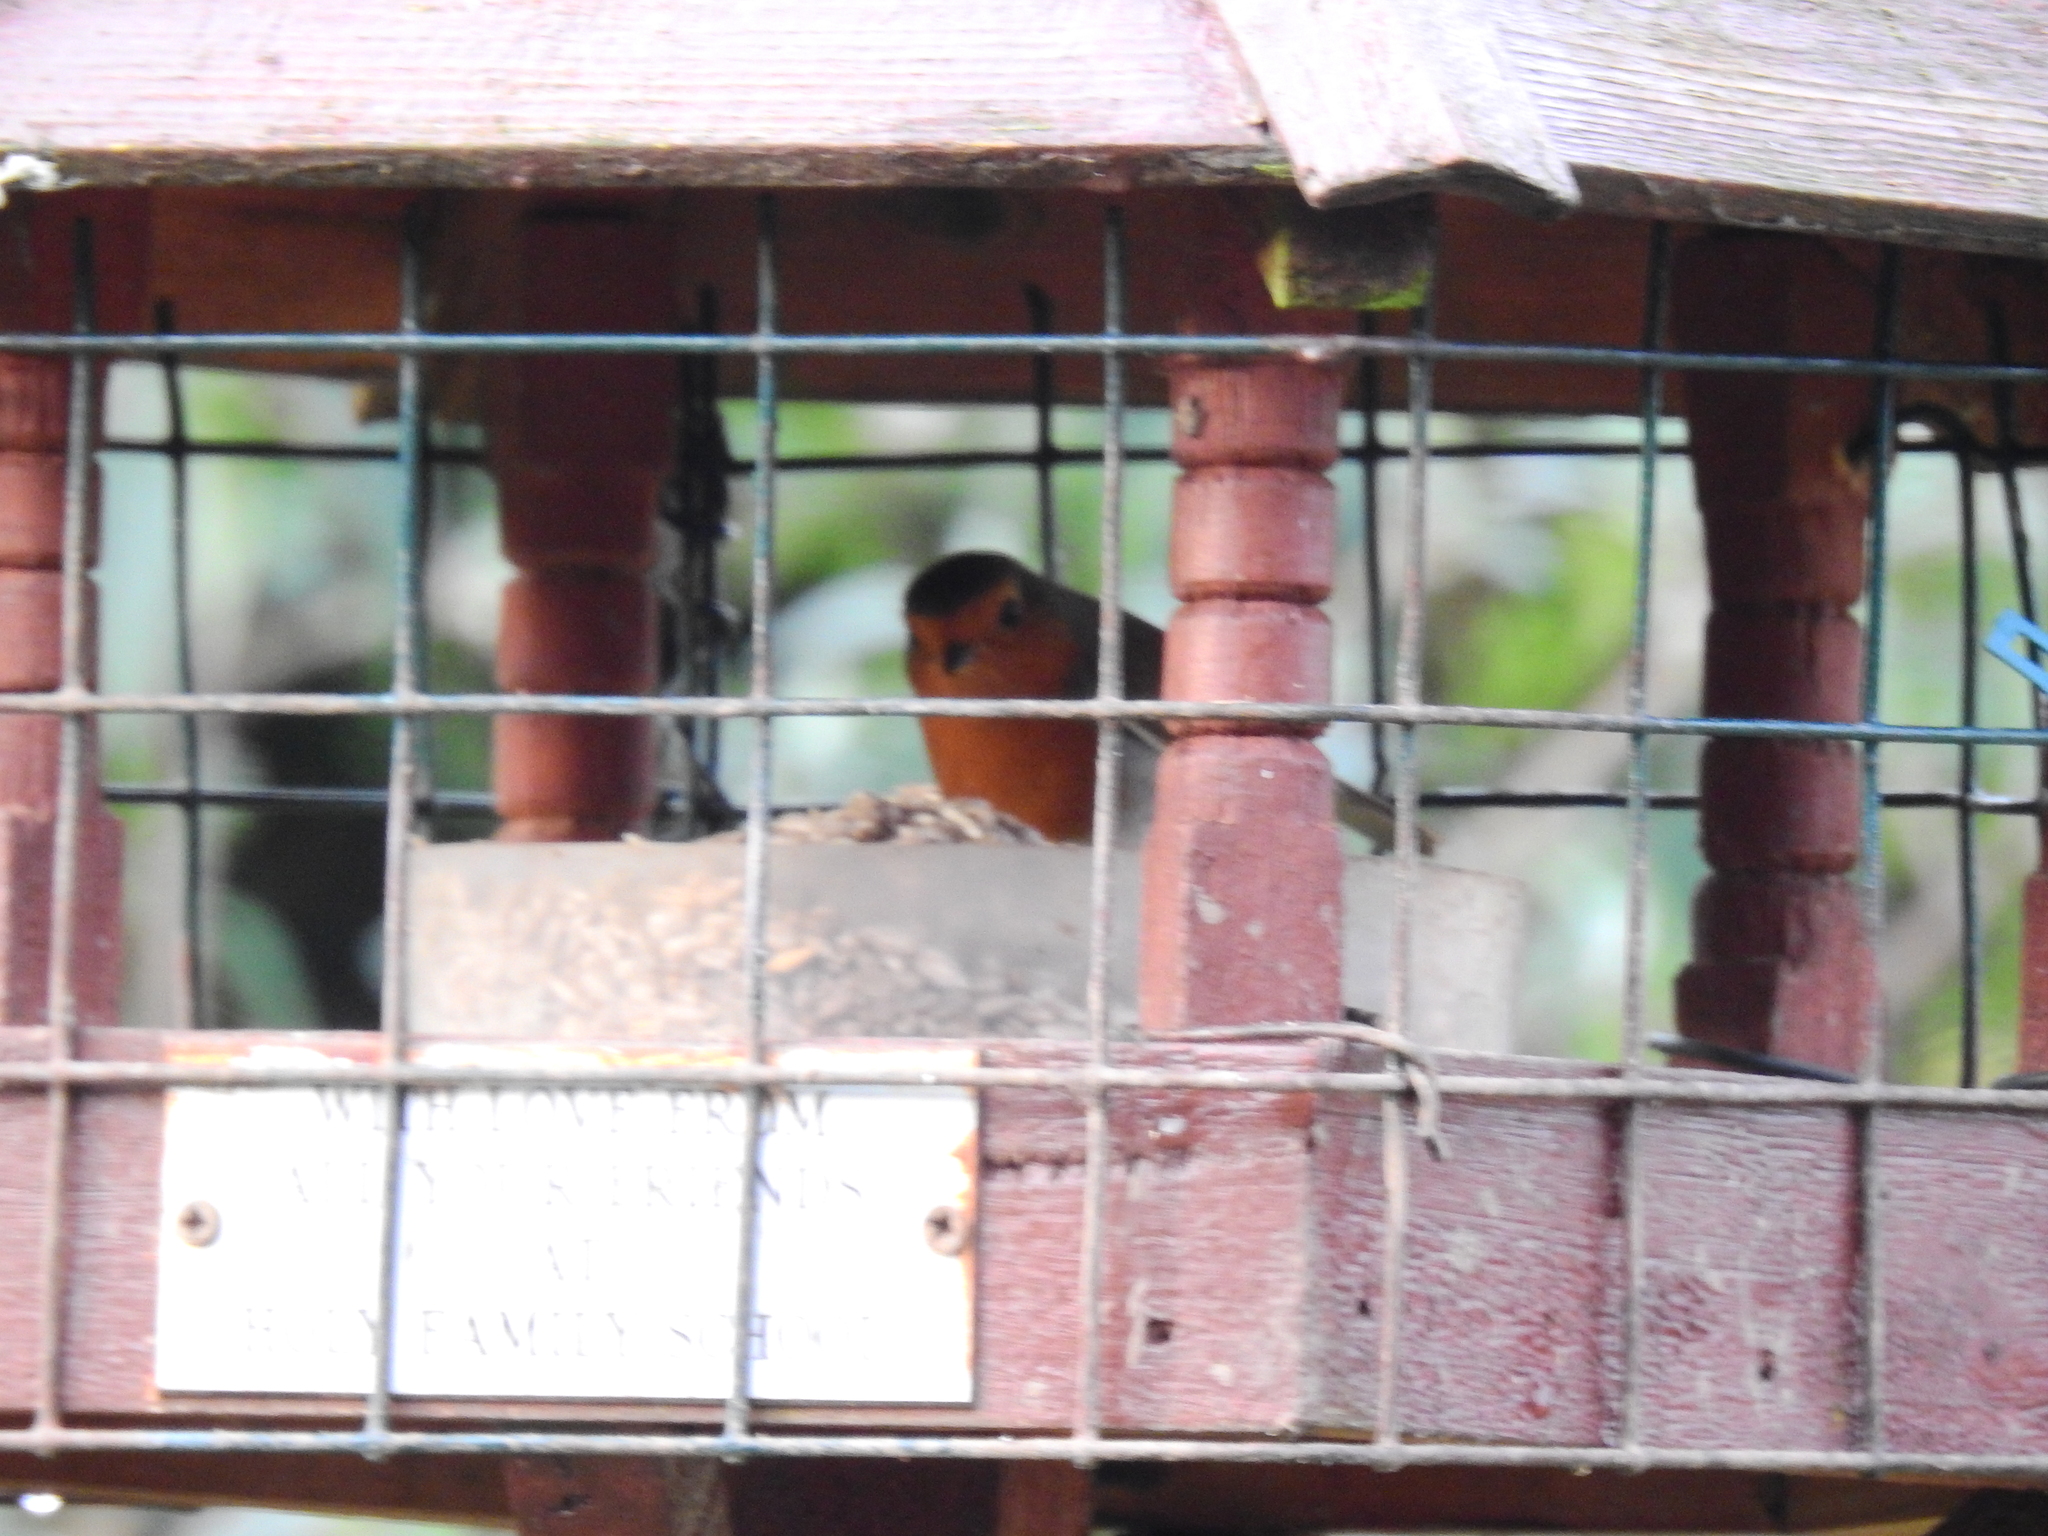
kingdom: Animalia
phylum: Chordata
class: Aves
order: Passeriformes
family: Muscicapidae
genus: Erithacus
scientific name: Erithacus rubecula
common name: European robin
